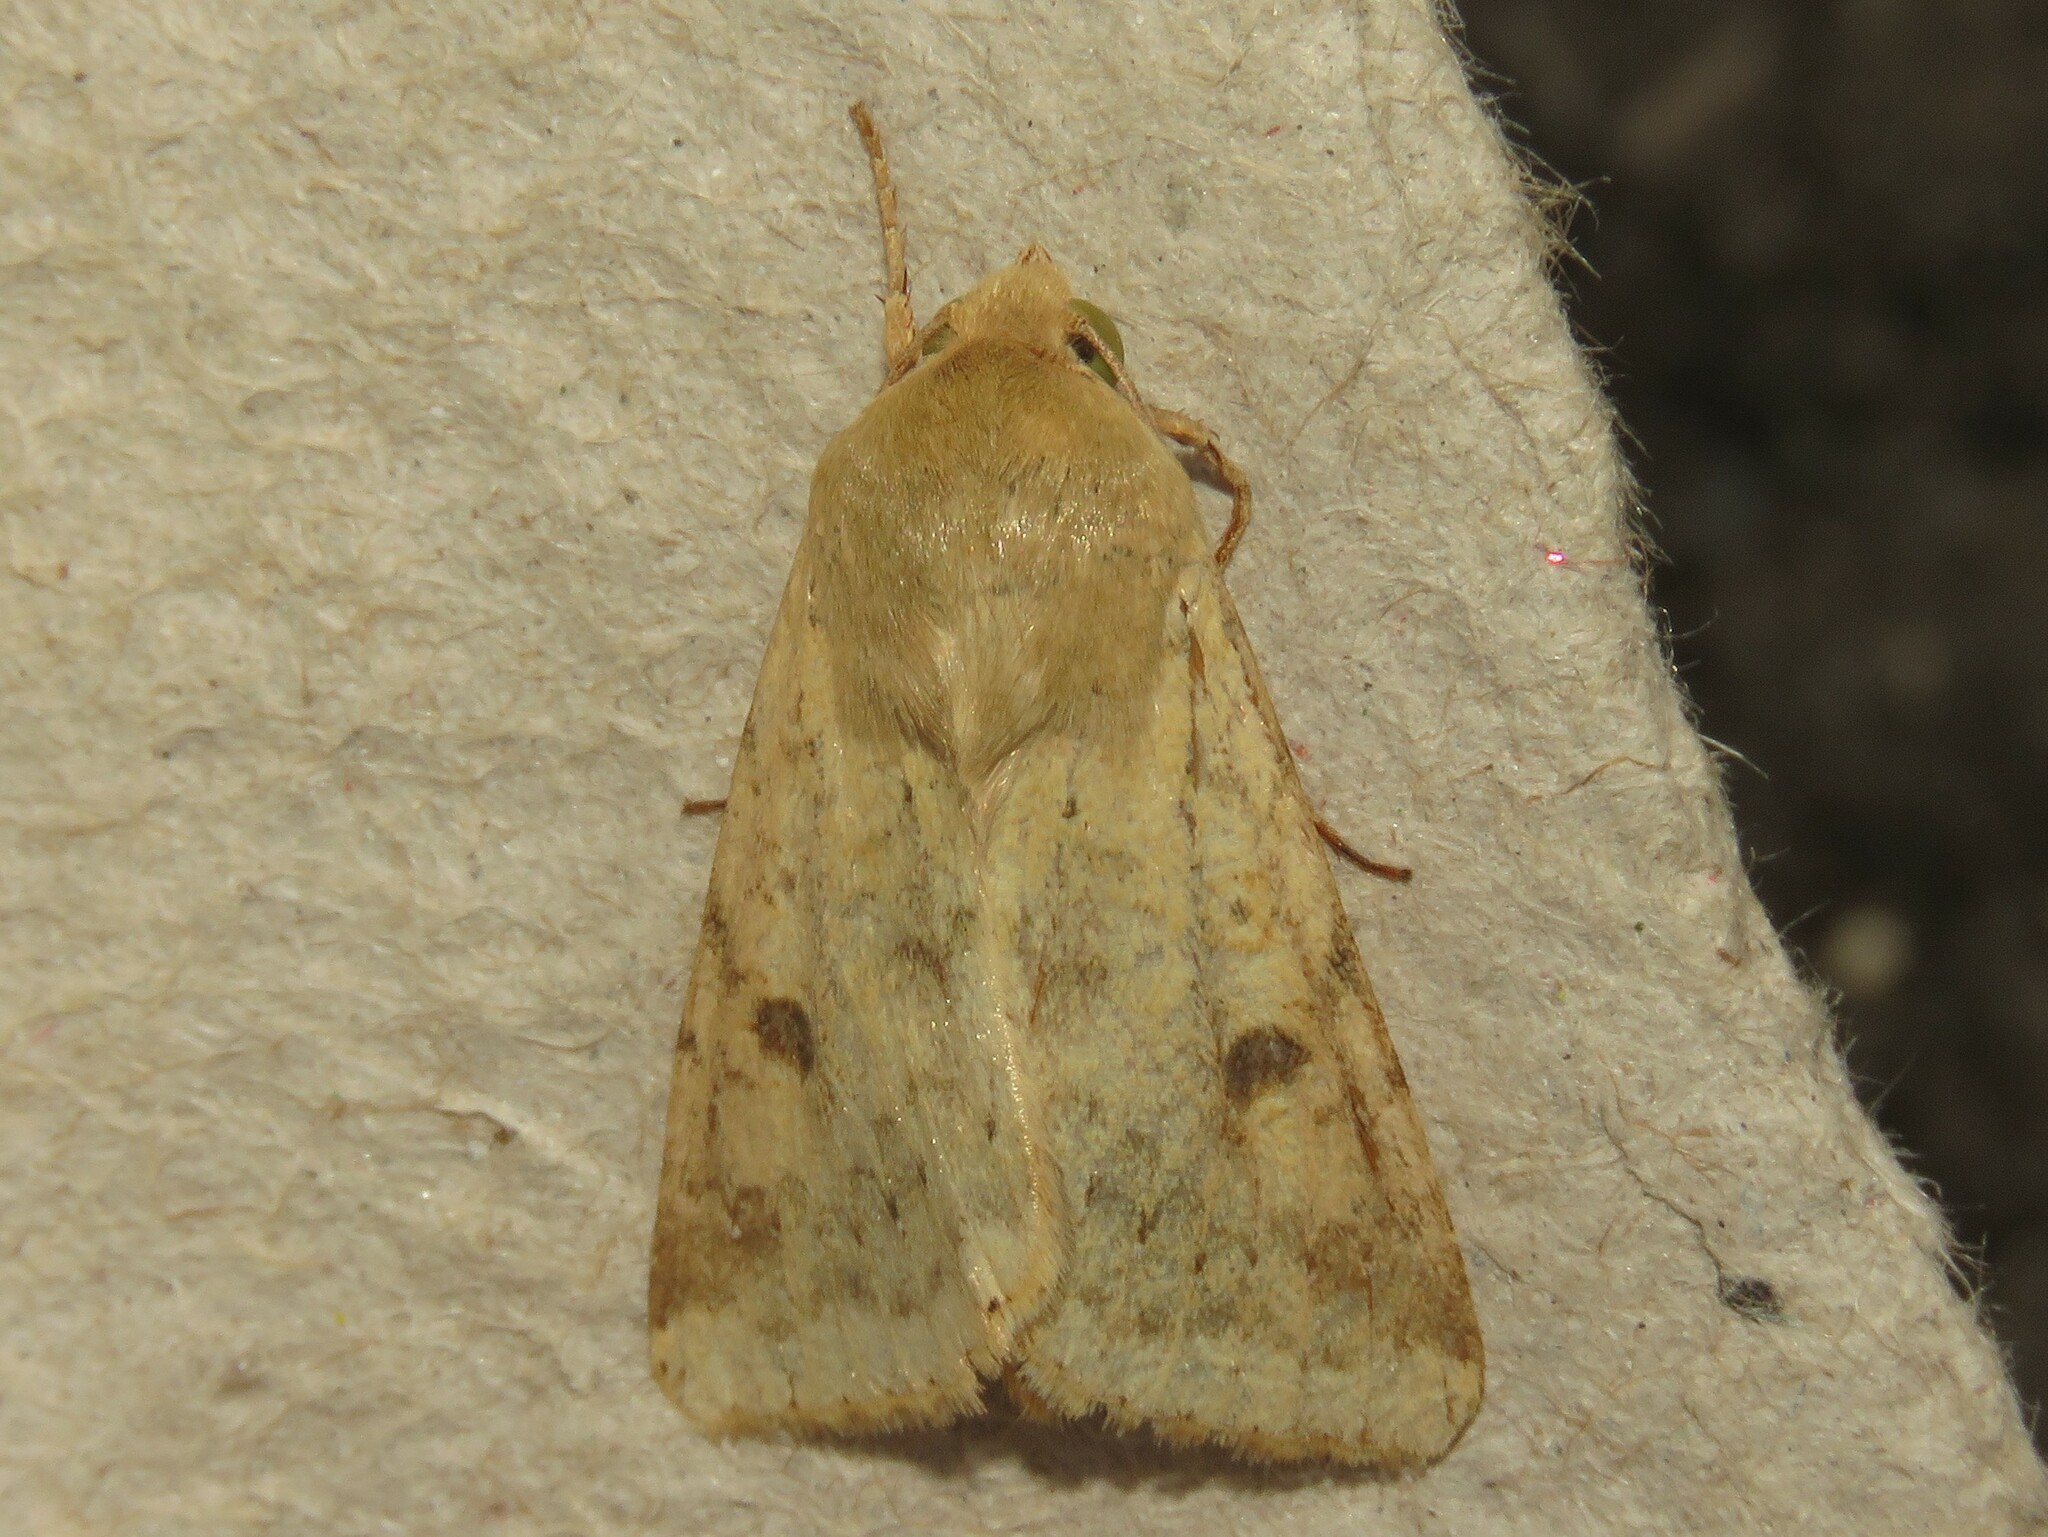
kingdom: Animalia
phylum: Arthropoda
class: Insecta
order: Lepidoptera
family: Noctuidae
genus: Helicoverpa
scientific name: Helicoverpa zea
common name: Bollworm
